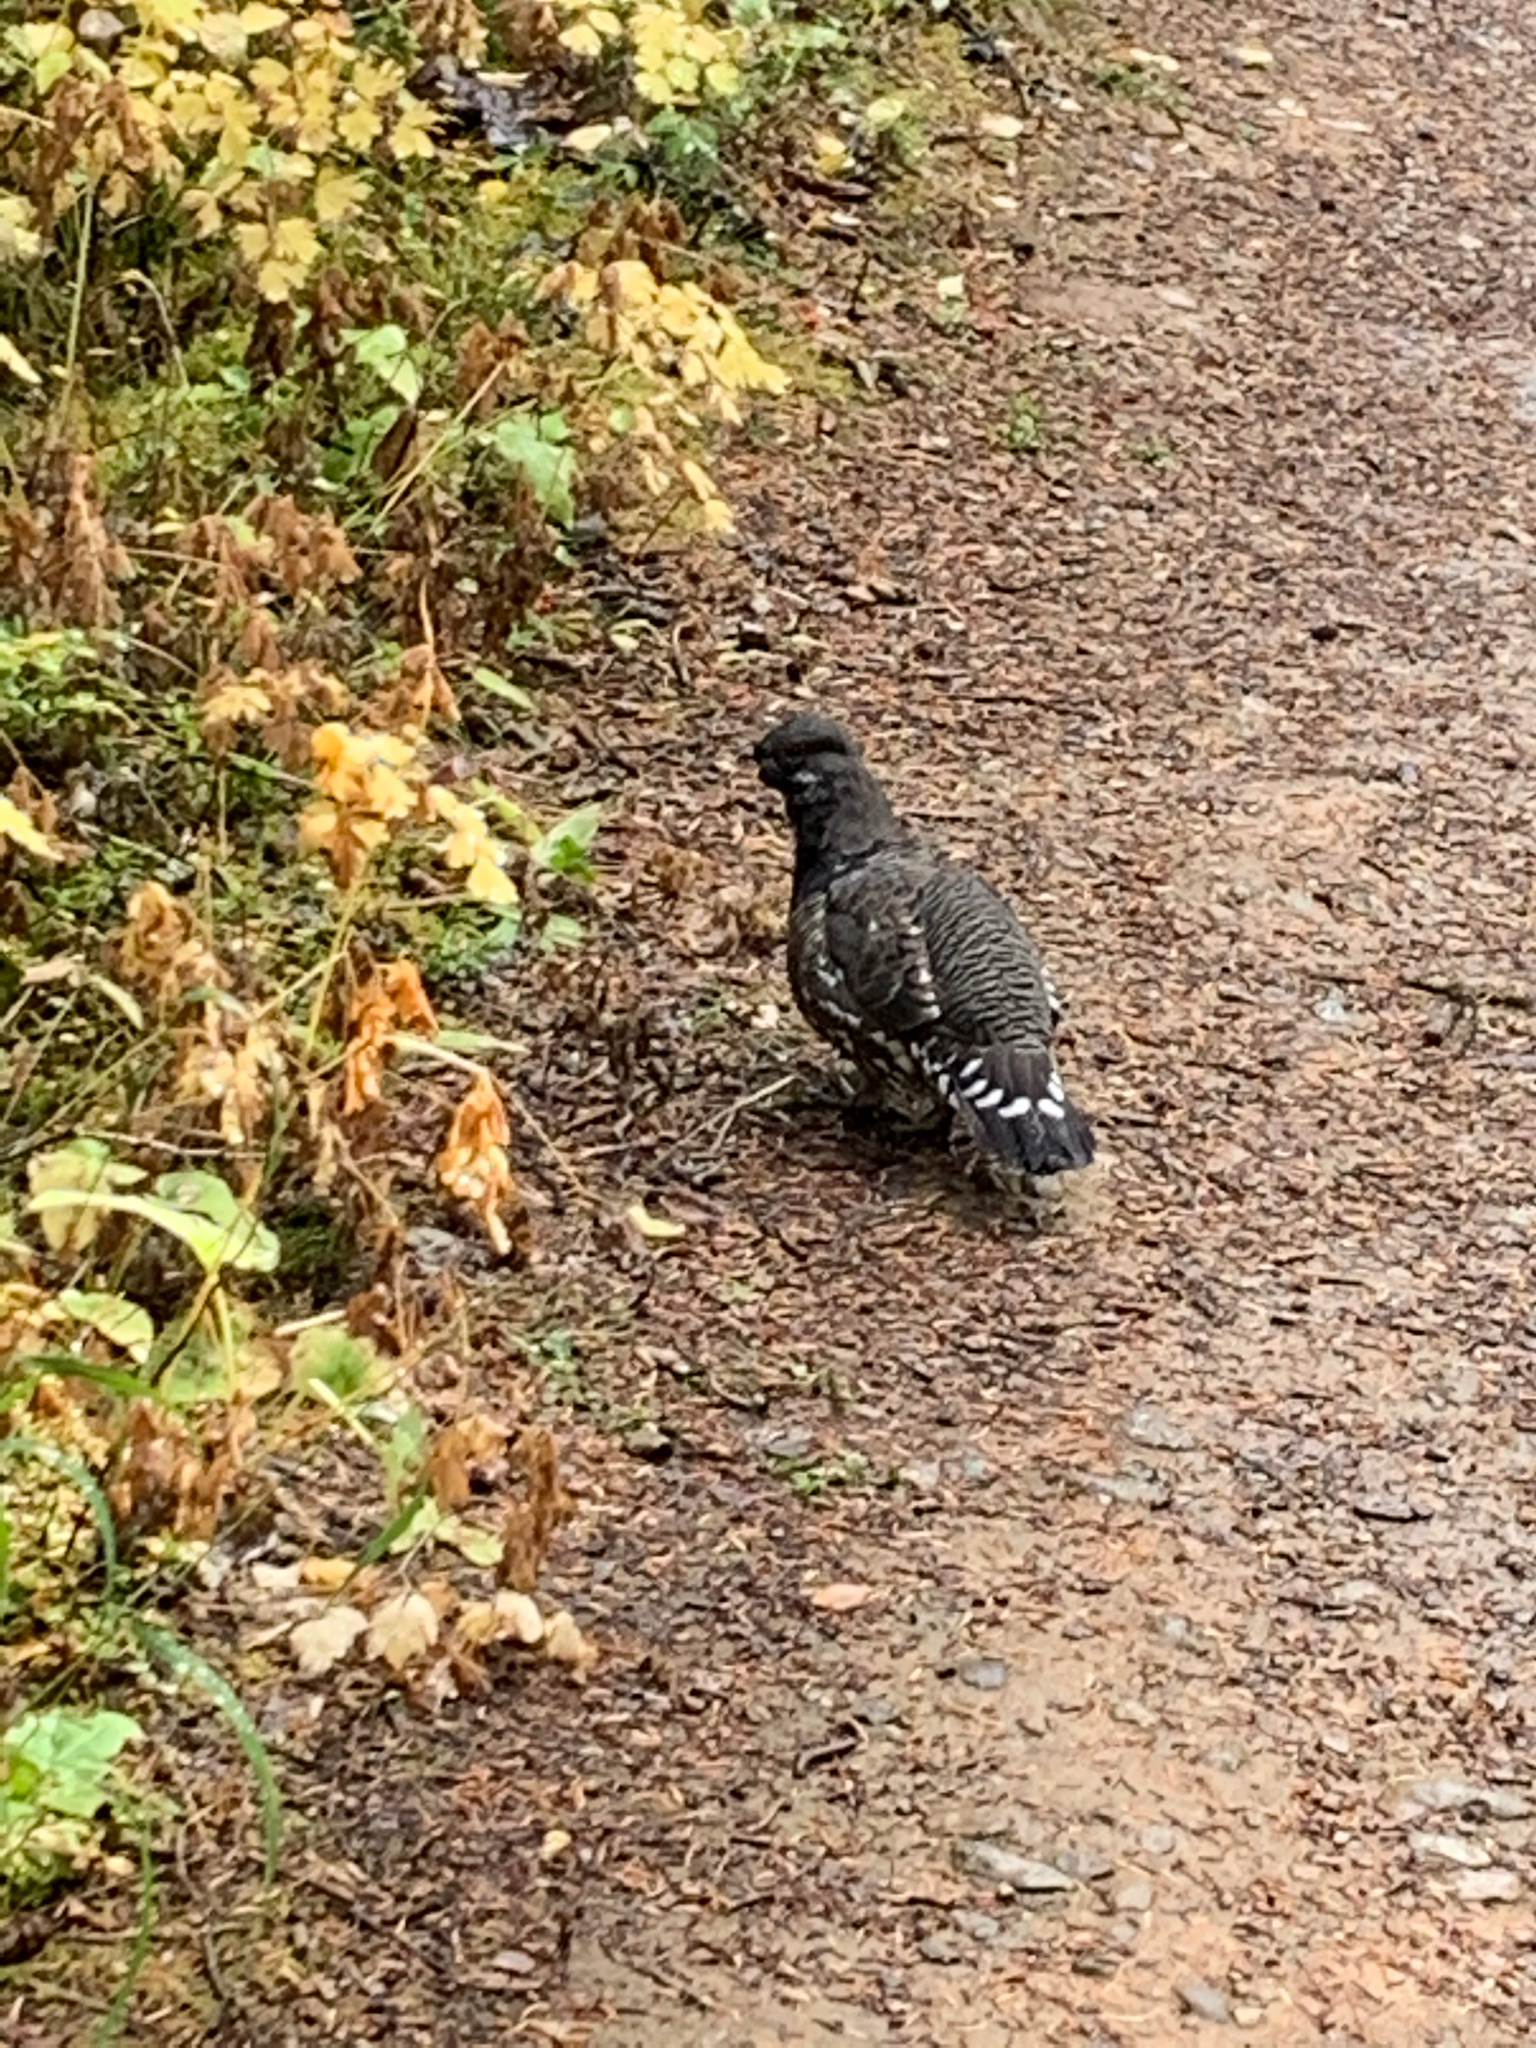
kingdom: Animalia
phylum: Chordata
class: Aves
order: Galliformes
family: Phasianidae
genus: Canachites
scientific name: Canachites canadensis
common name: Spruce grouse
